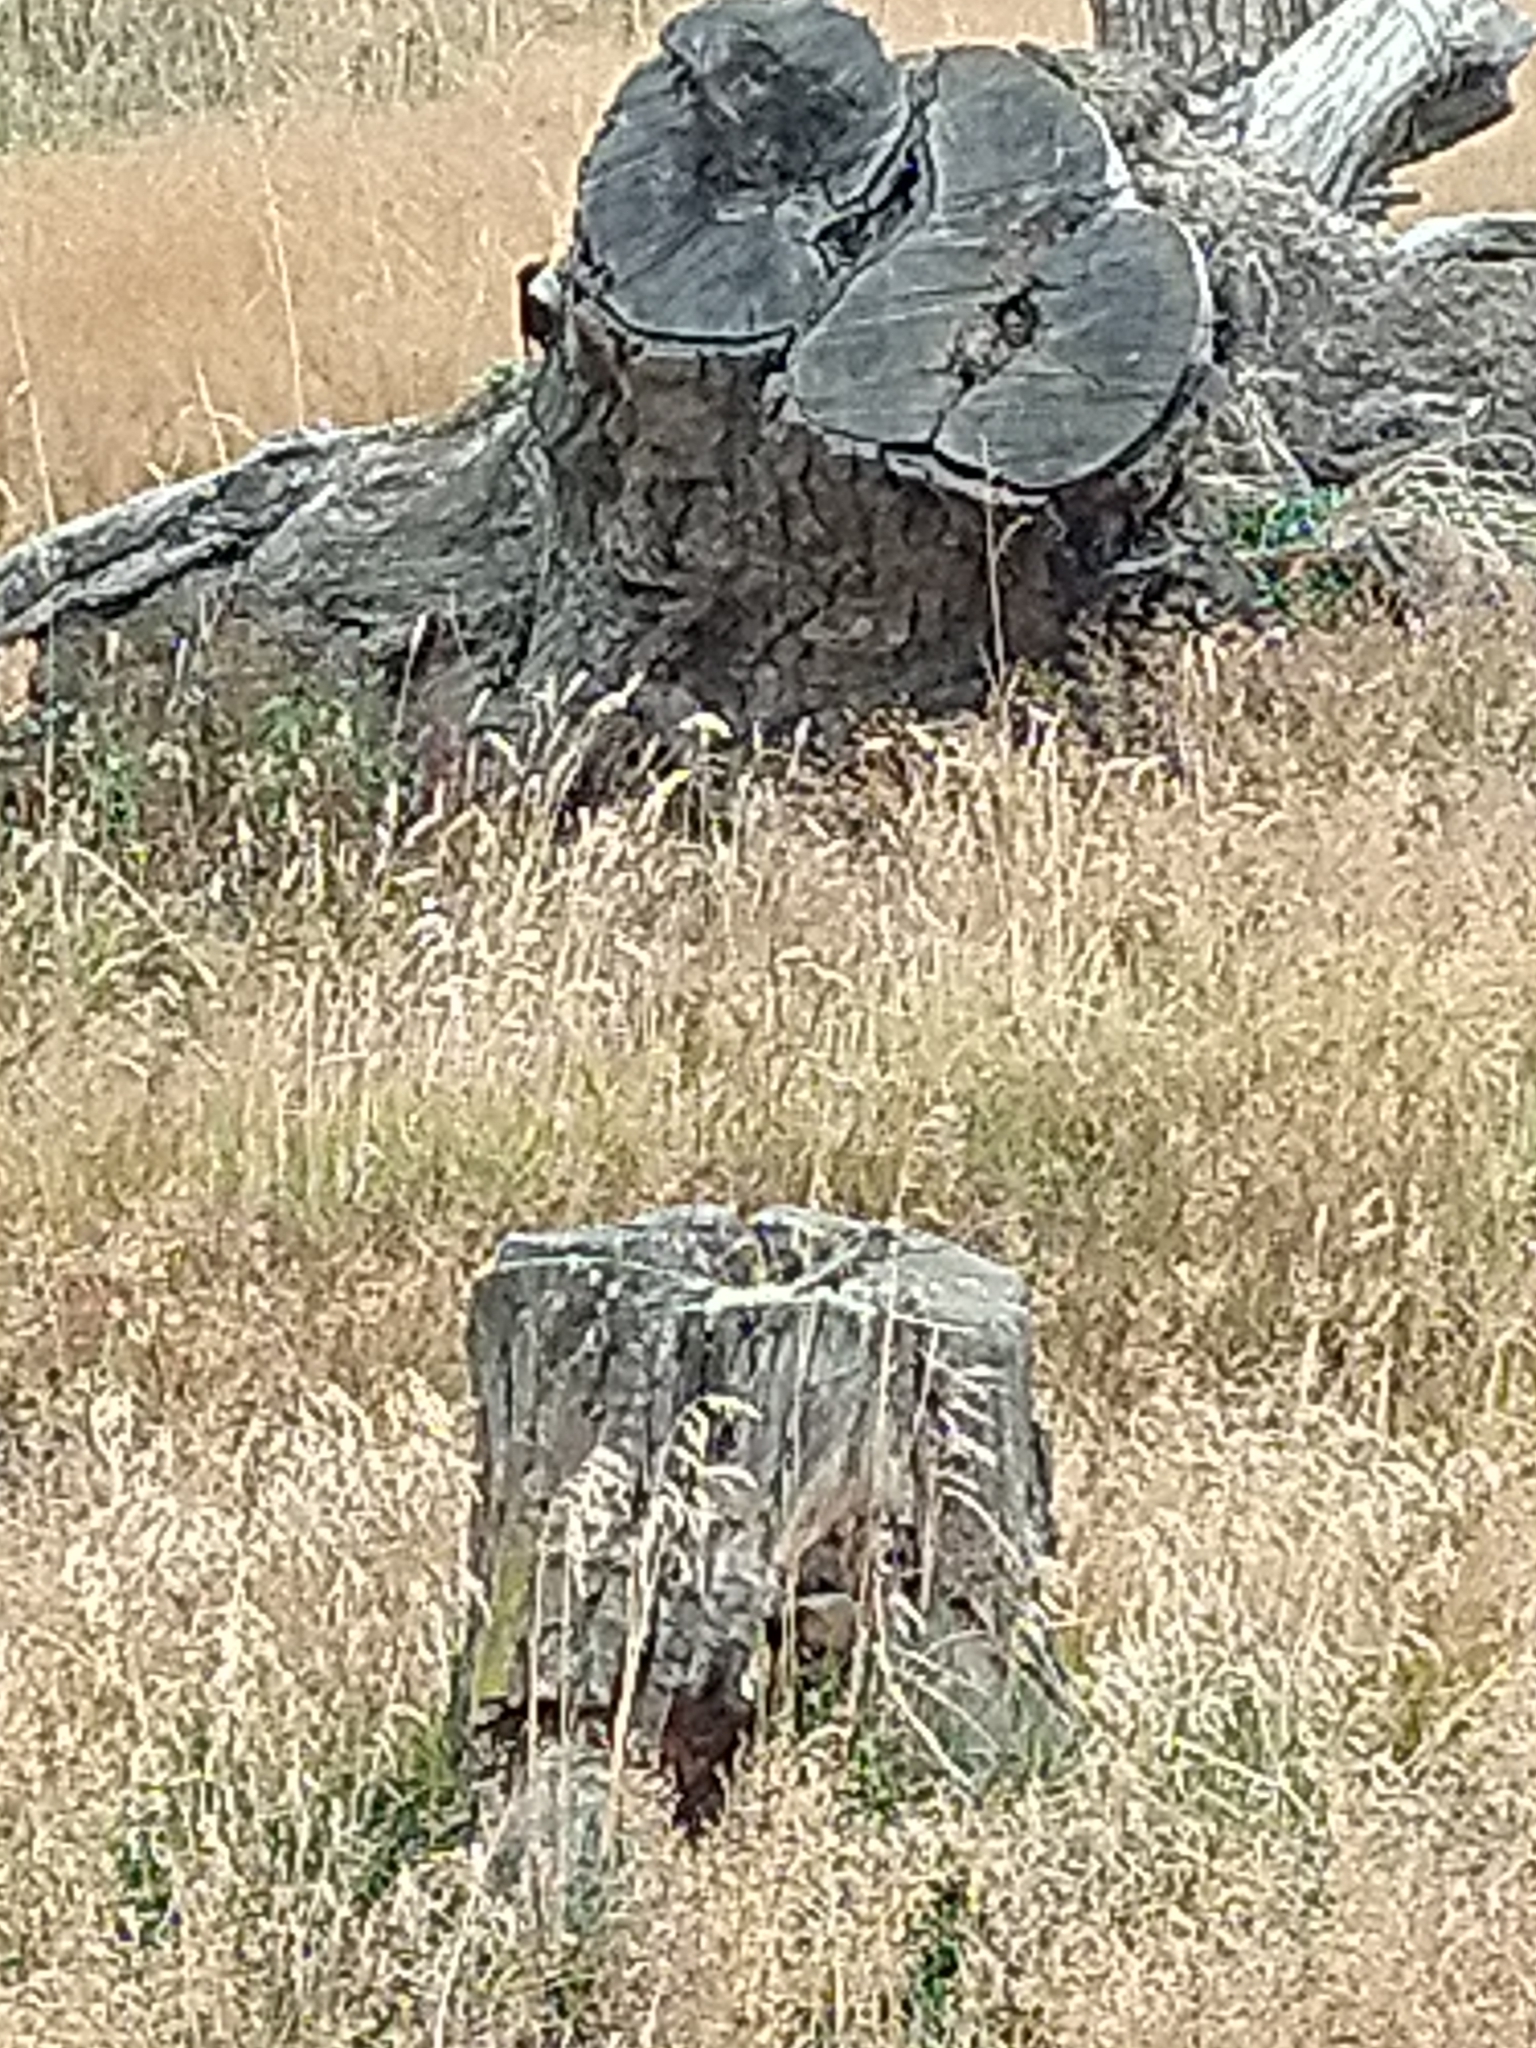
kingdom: Animalia
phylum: Chordata
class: Aves
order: Passeriformes
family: Furnariidae
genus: Pygarrhichas
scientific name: Pygarrhichas albogularis
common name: White-throated treerunner
